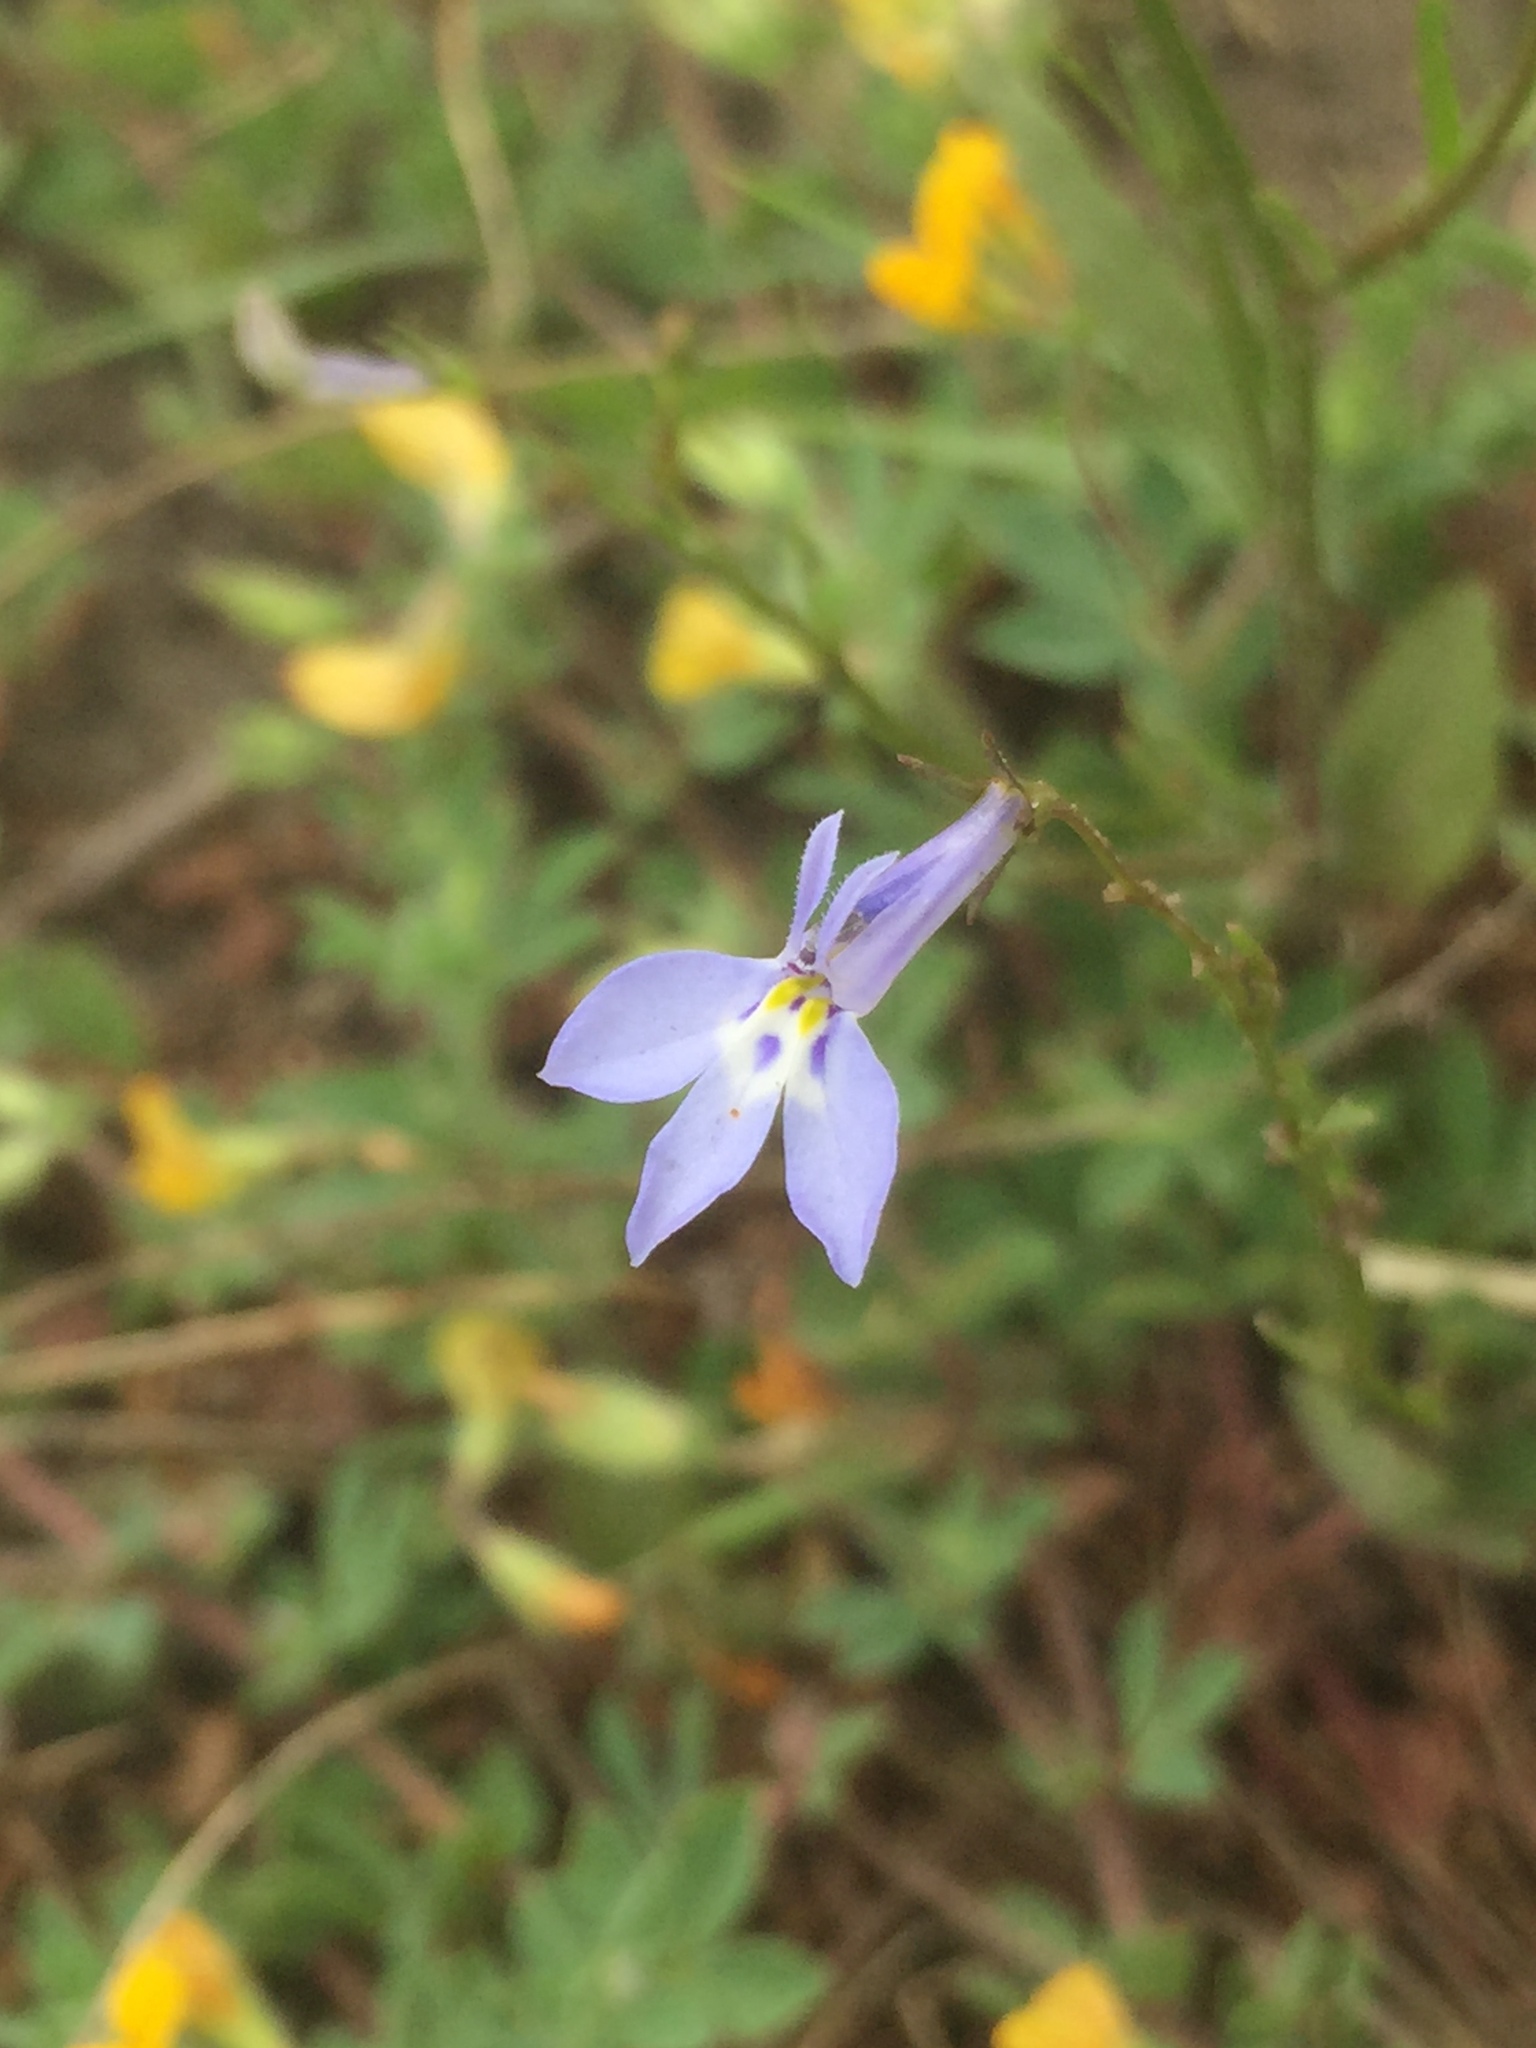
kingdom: Plantae
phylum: Tracheophyta
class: Magnoliopsida
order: Asterales
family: Campanulaceae
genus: Lobelia
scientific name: Lobelia erinus
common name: Edging lobelia
